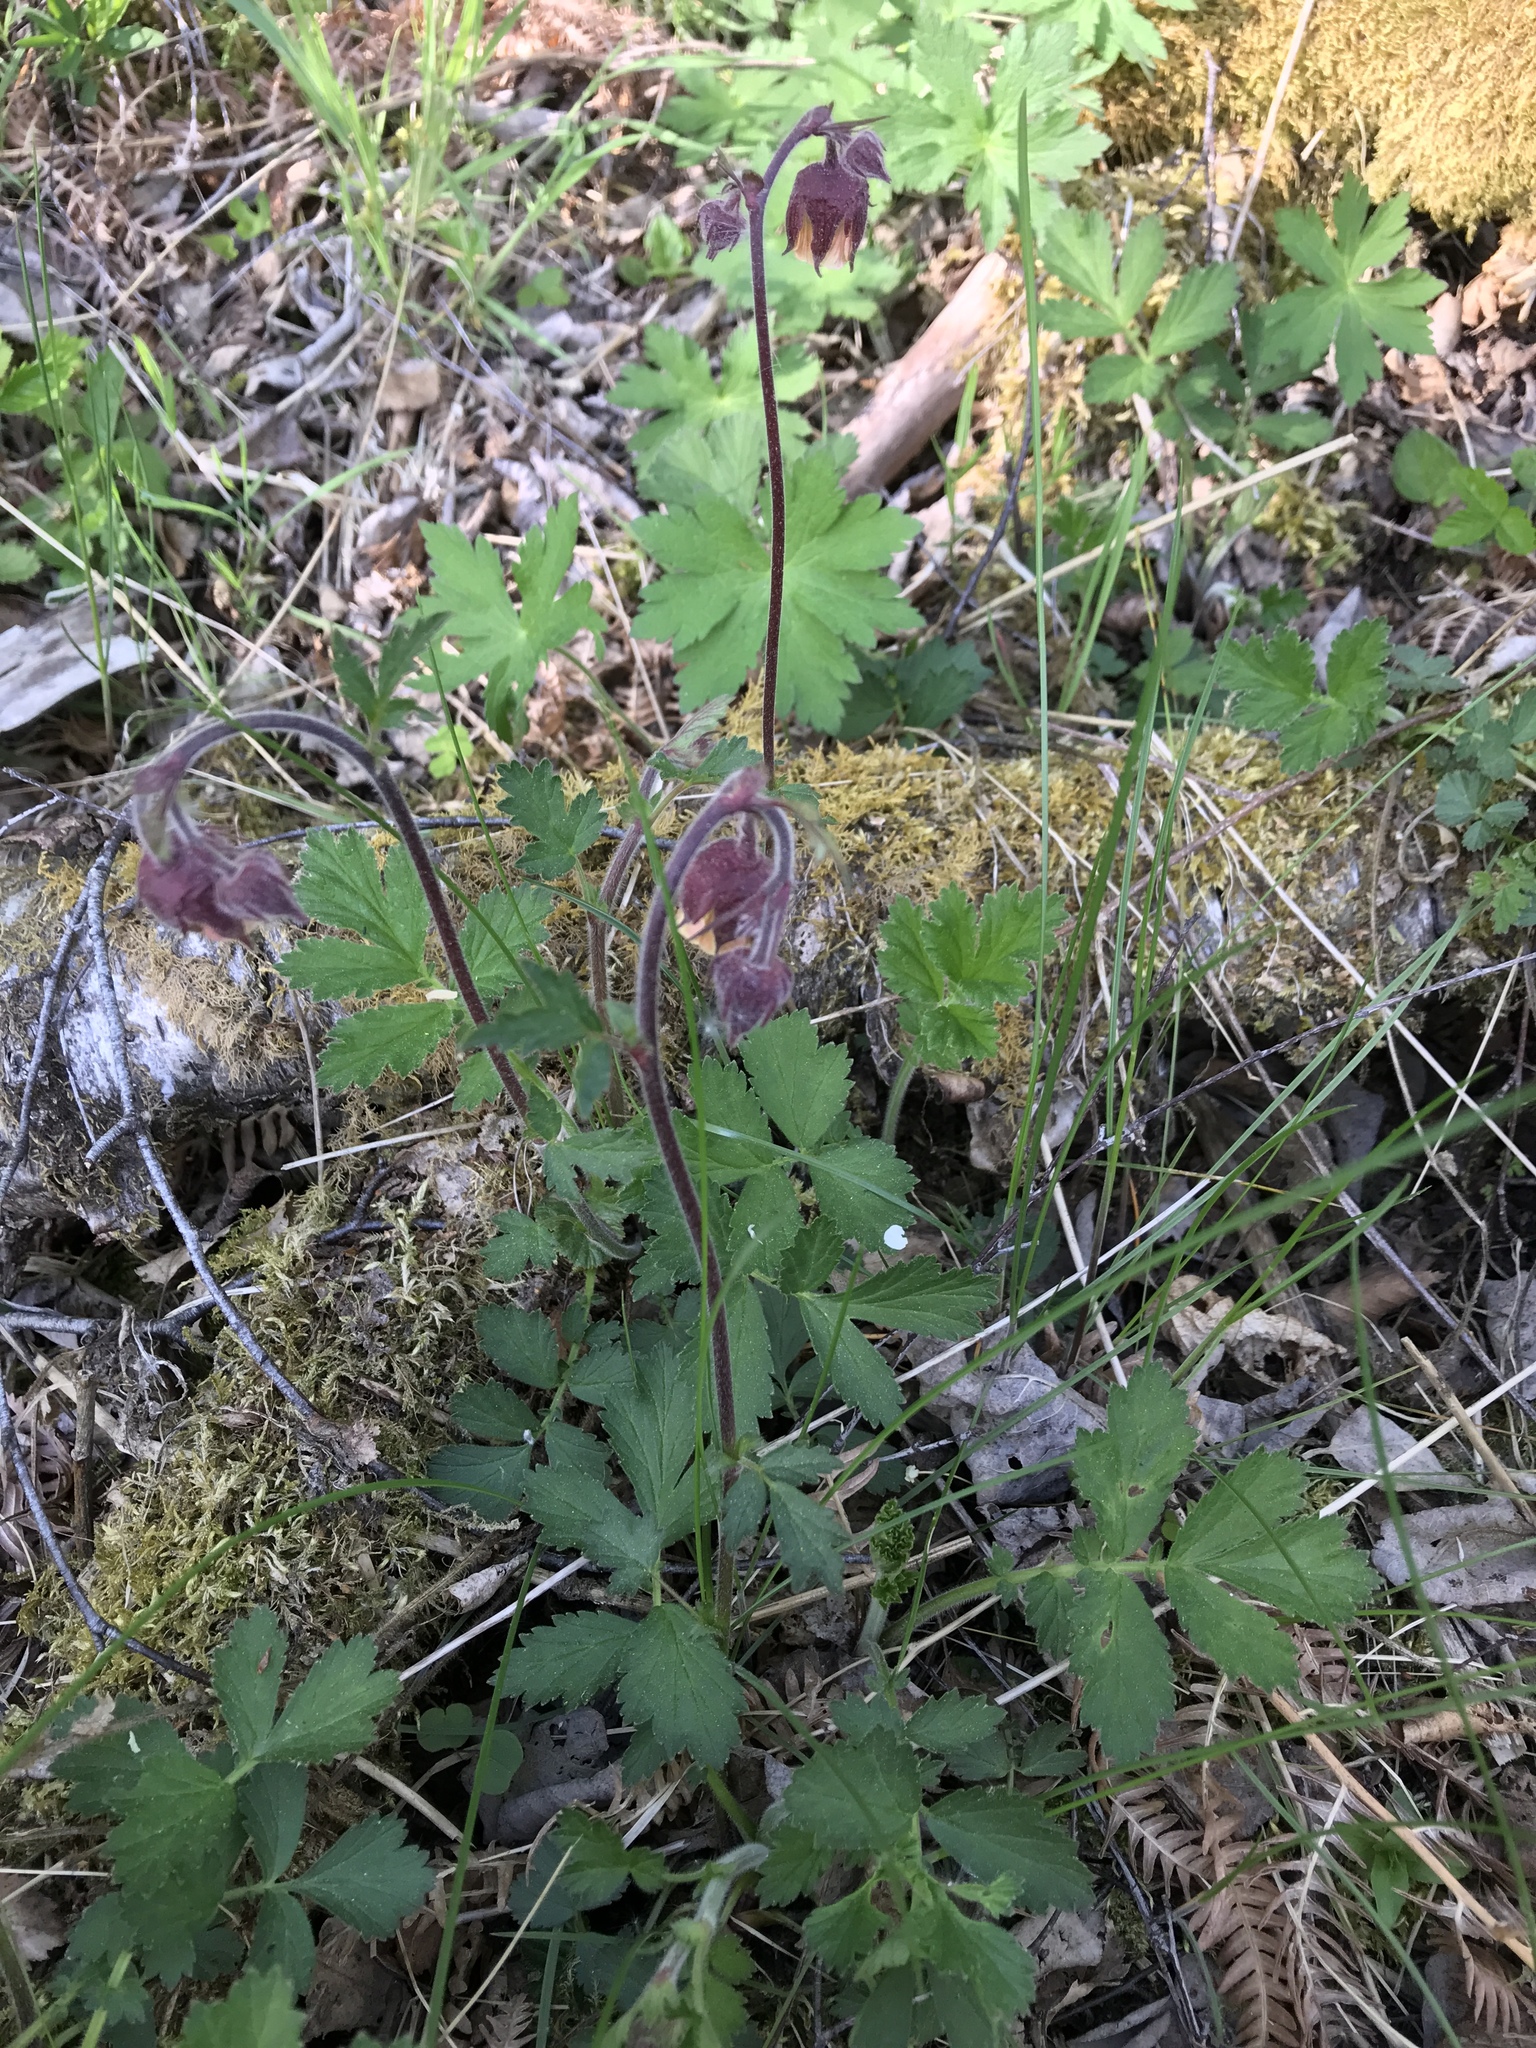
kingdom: Plantae
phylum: Tracheophyta
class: Magnoliopsida
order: Rosales
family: Rosaceae
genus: Geum
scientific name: Geum rivale
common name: Water avens
